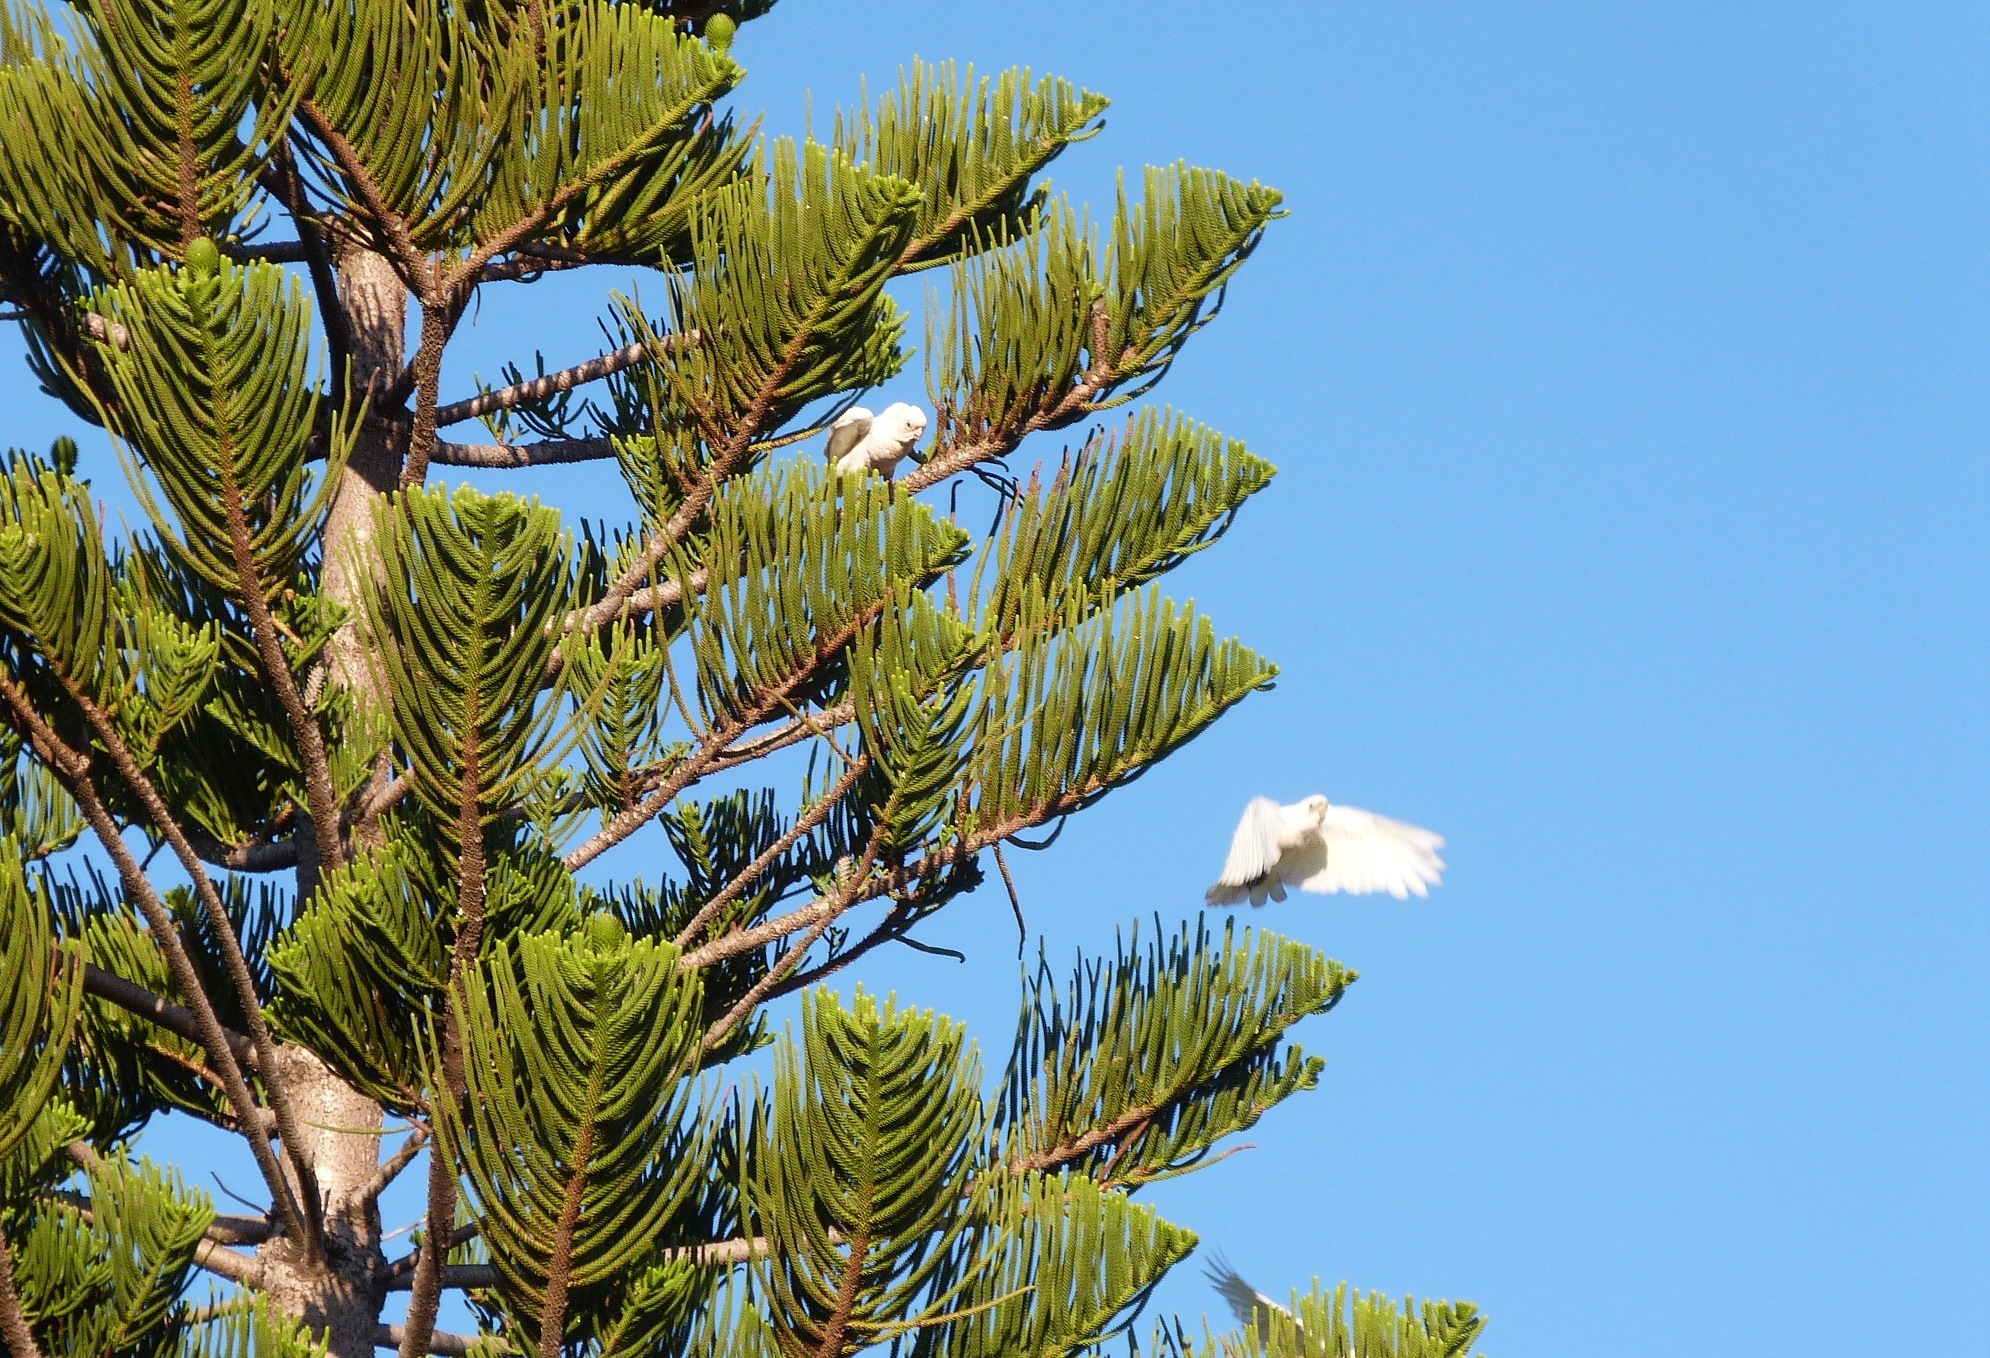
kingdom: Animalia
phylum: Chordata
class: Aves
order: Psittaciformes
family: Psittacidae
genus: Cacatua
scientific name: Cacatua sanguinea
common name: Little corella
